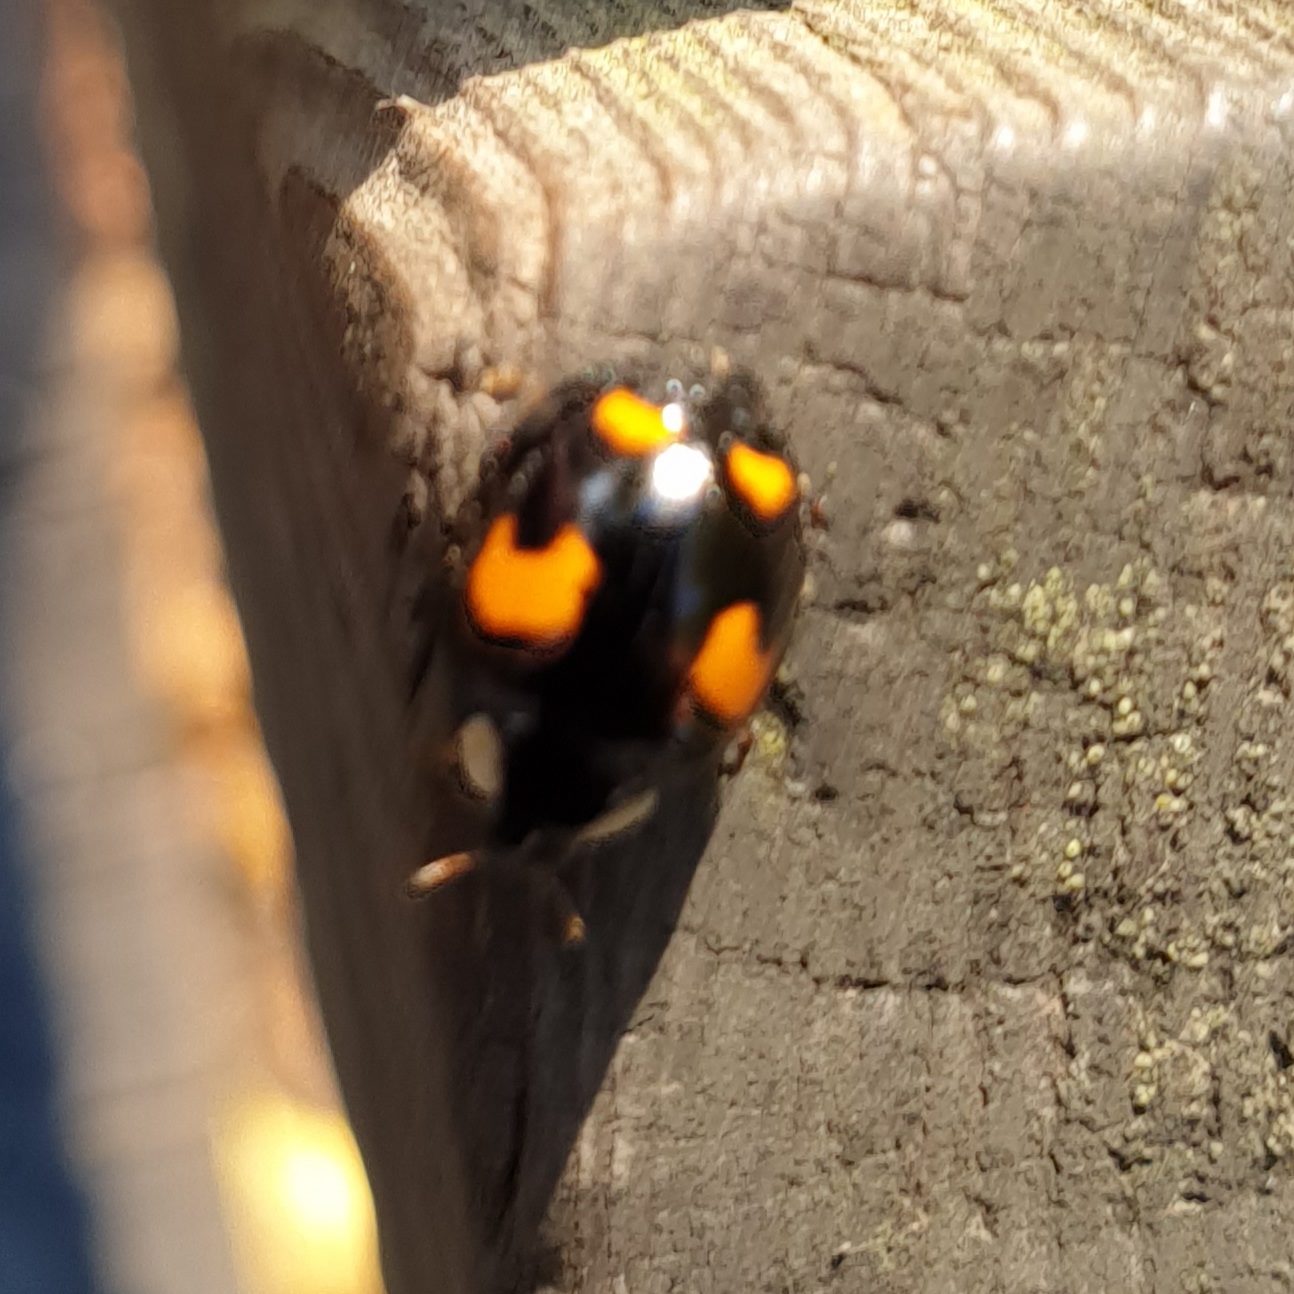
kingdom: Animalia
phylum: Arthropoda
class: Insecta
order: Coleoptera
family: Coccinellidae
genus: Harmonia
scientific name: Harmonia axyridis
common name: Harlequin ladybird
